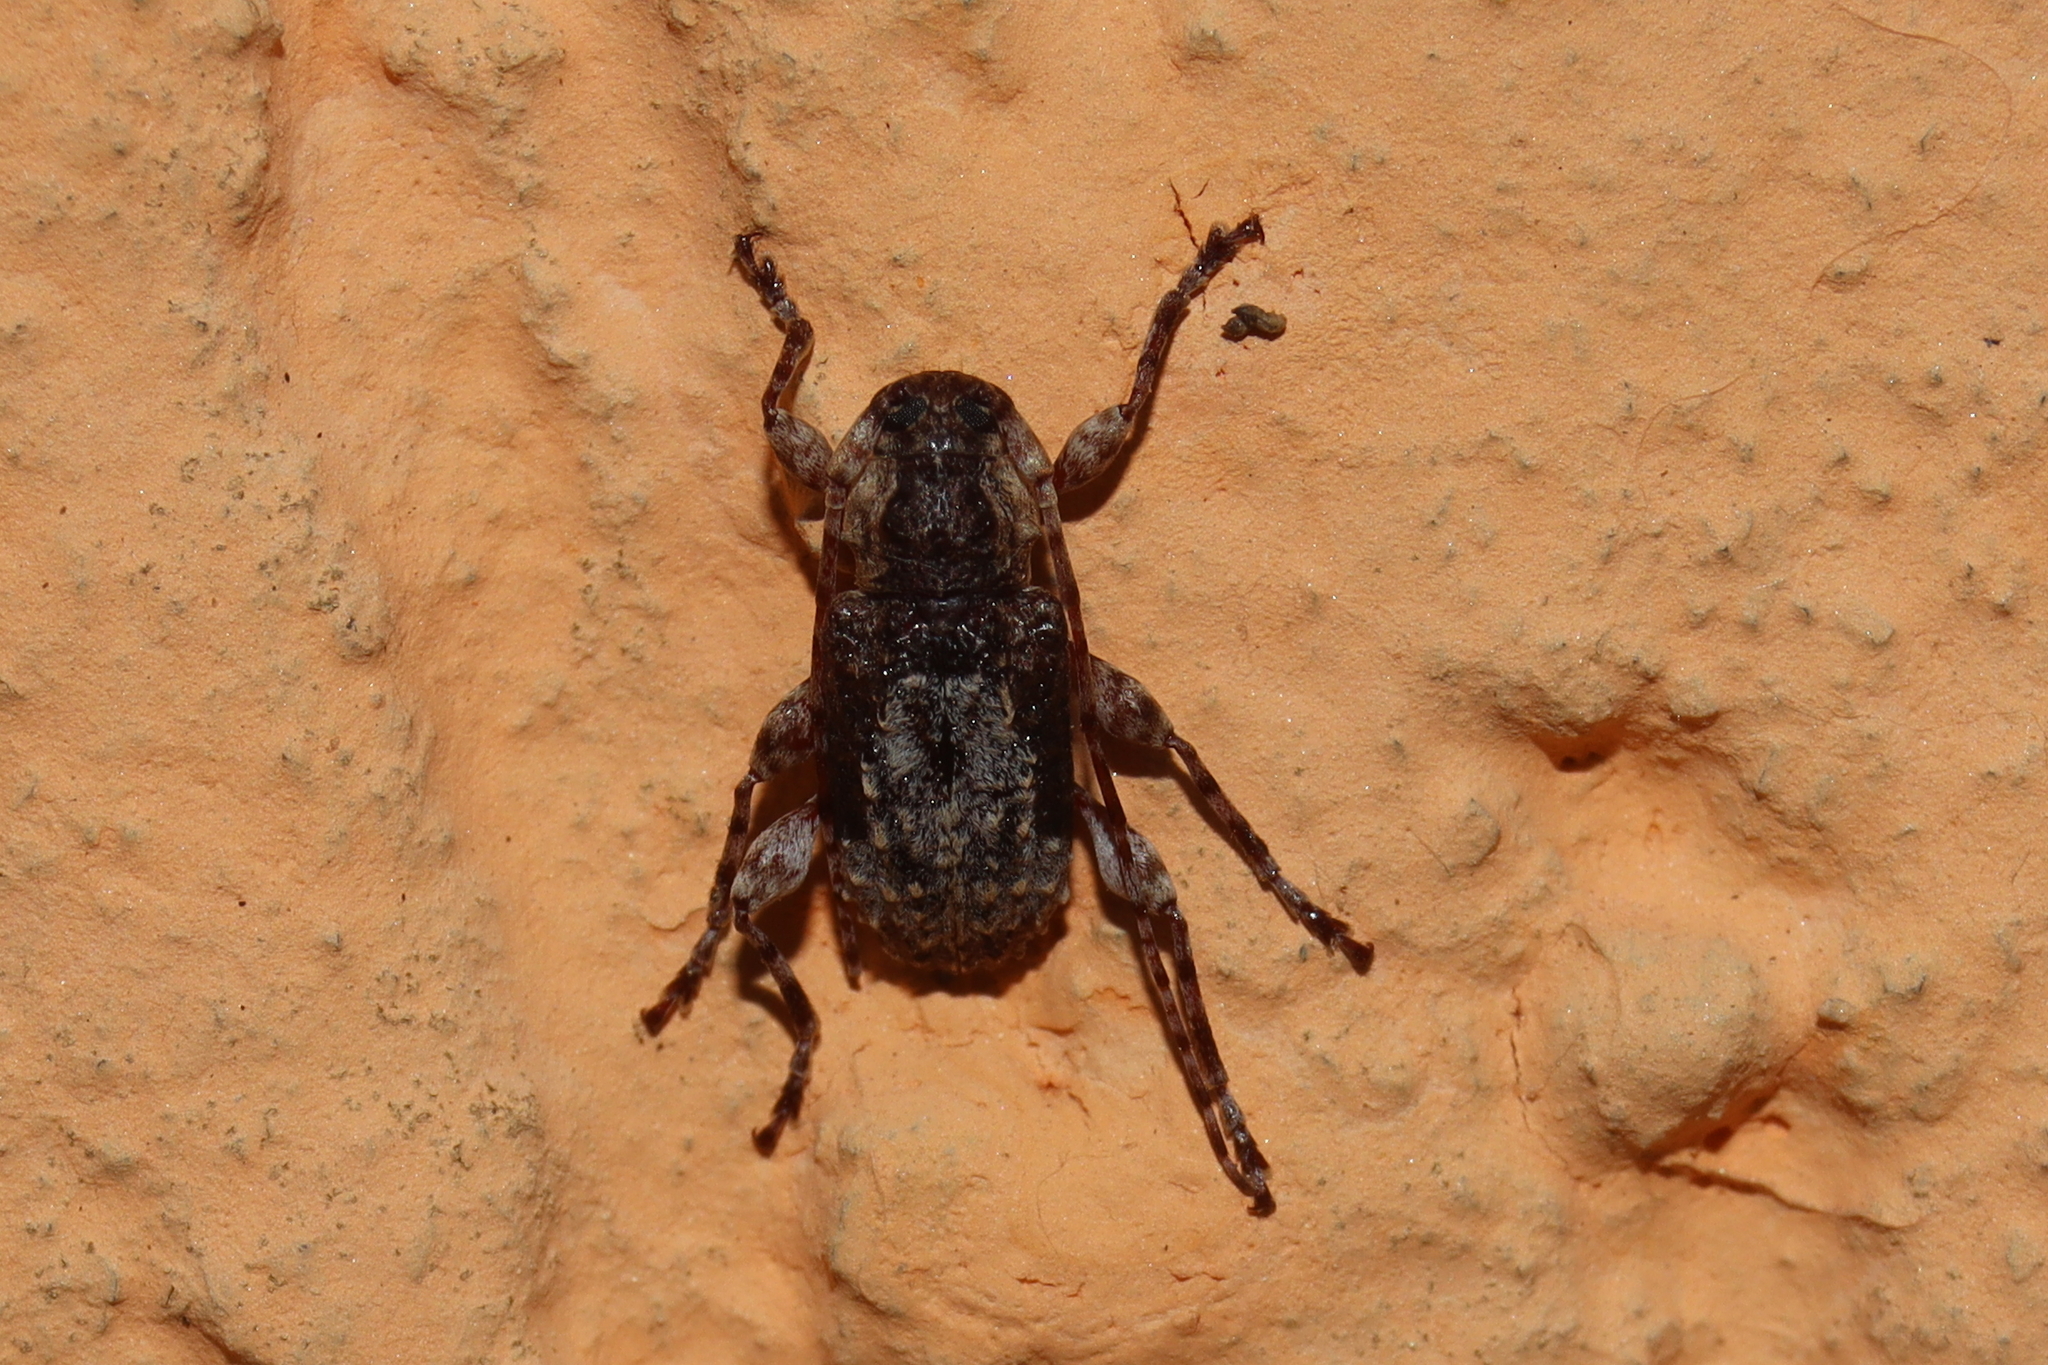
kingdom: Animalia
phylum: Arthropoda
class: Insecta
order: Coleoptera
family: Cerambycidae
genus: Exalphus
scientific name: Exalphus gounellei
